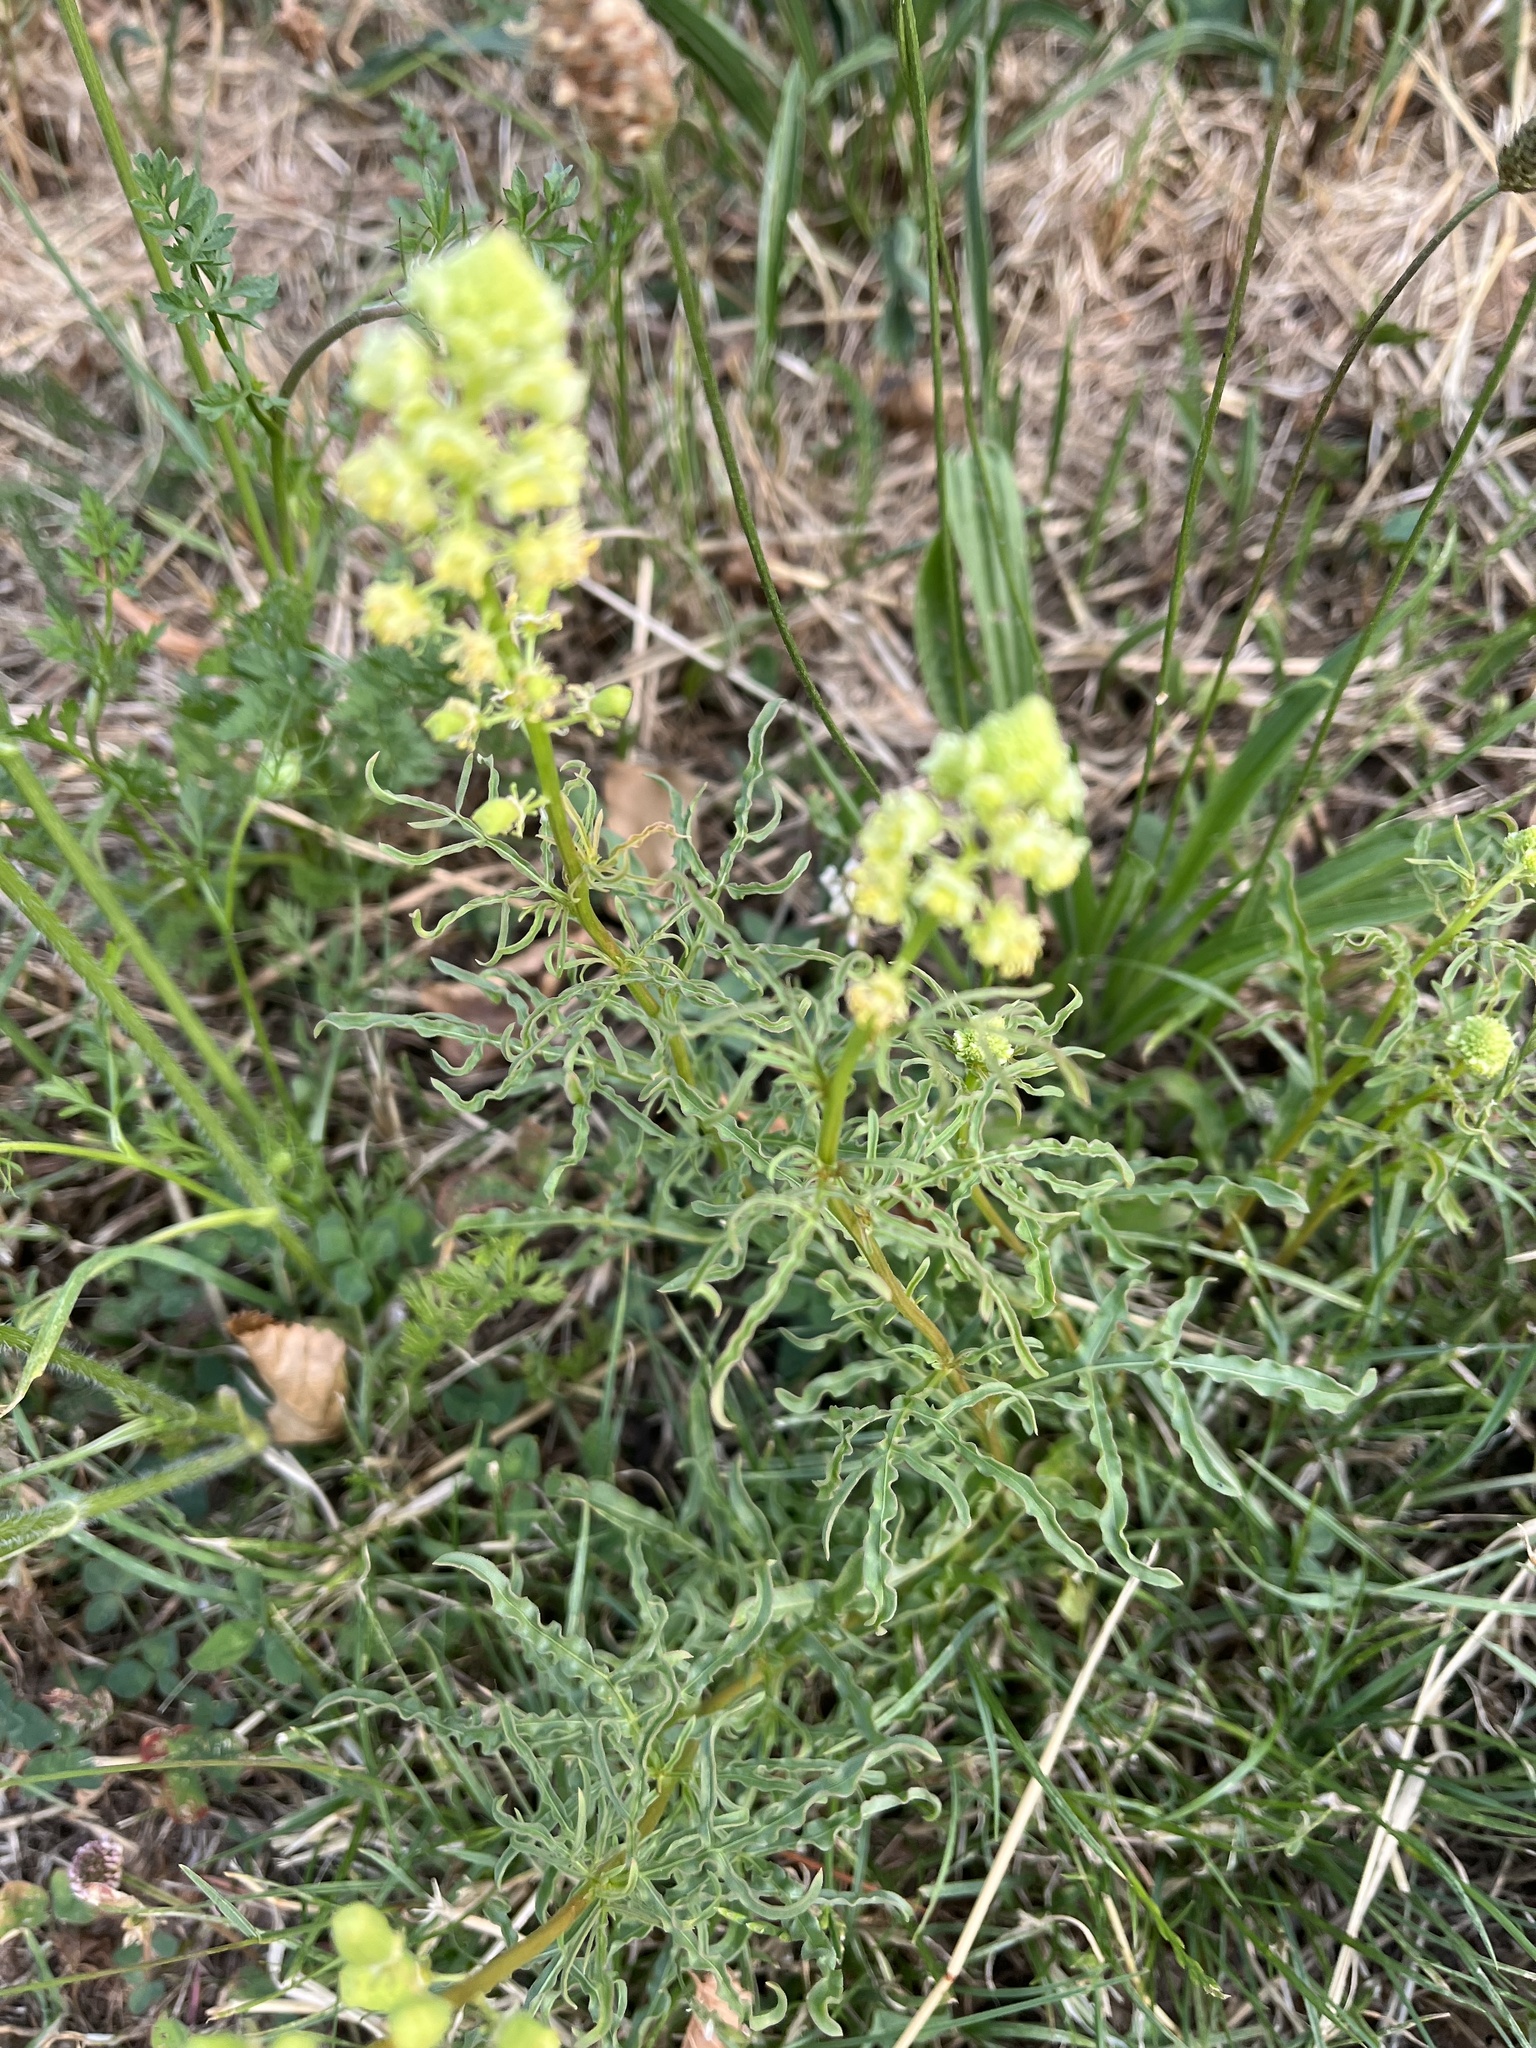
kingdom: Plantae
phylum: Tracheophyta
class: Magnoliopsida
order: Brassicales
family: Resedaceae
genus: Reseda
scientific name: Reseda lutea
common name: Wild mignonette
